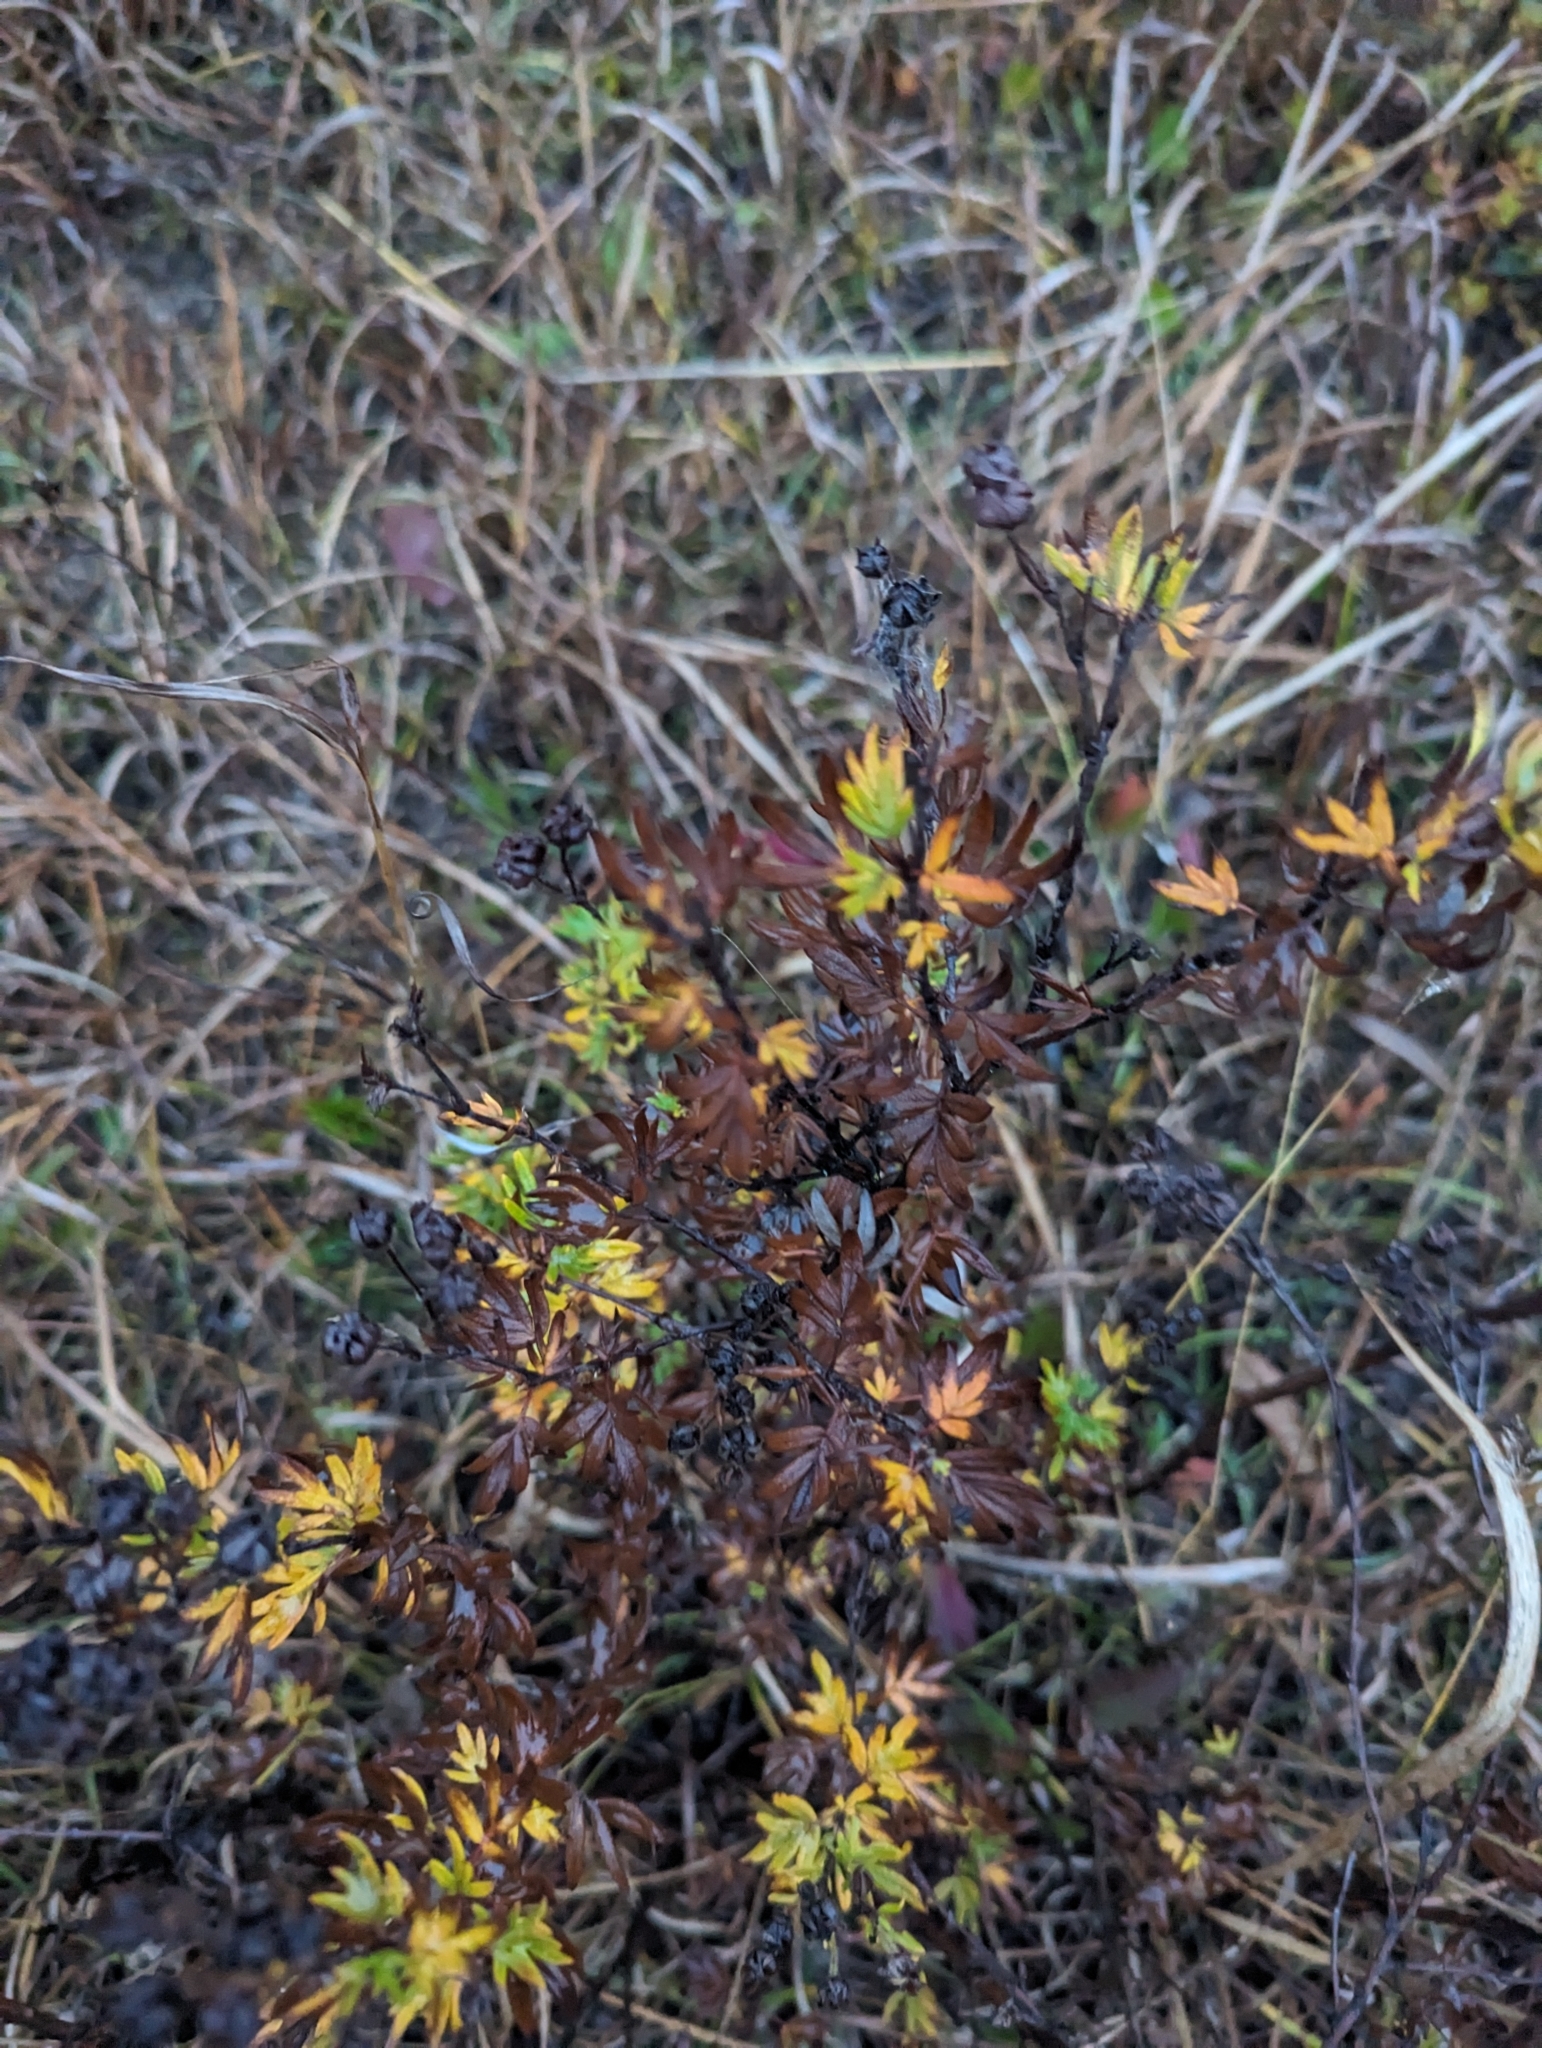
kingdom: Plantae
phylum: Tracheophyta
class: Magnoliopsida
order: Rosales
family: Rosaceae
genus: Dasiphora
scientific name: Dasiphora fruticosa
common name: Shrubby cinquefoil
